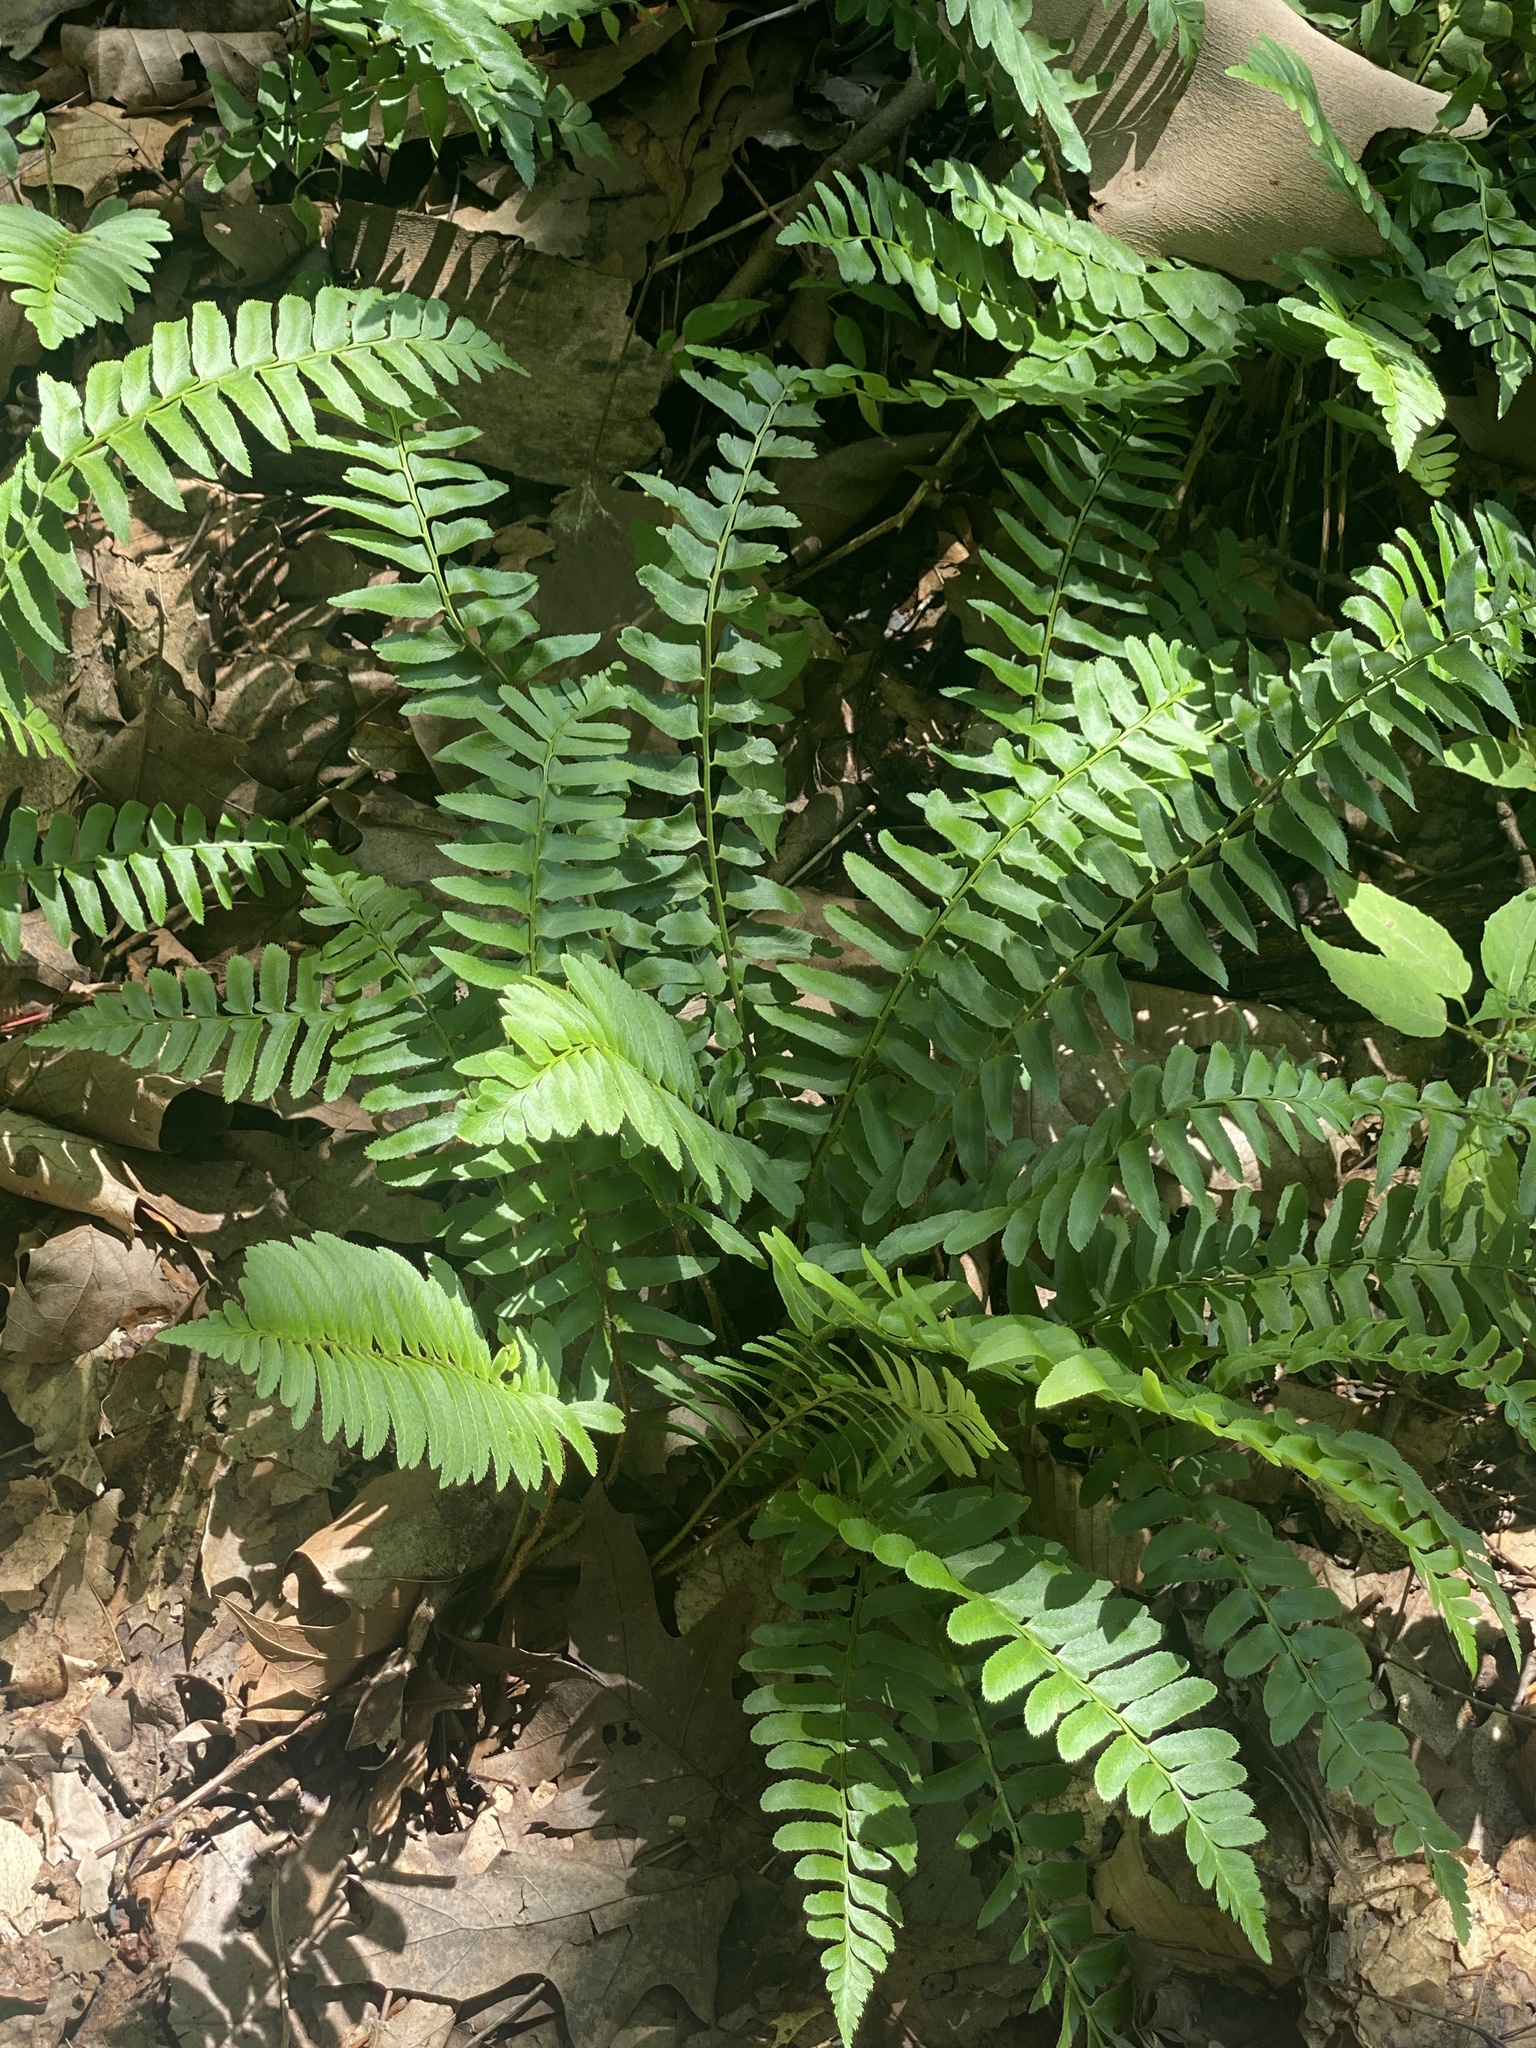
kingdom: Plantae
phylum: Tracheophyta
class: Polypodiopsida
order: Polypodiales
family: Dryopteridaceae
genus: Polystichum
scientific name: Polystichum acrostichoides
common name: Christmas fern
